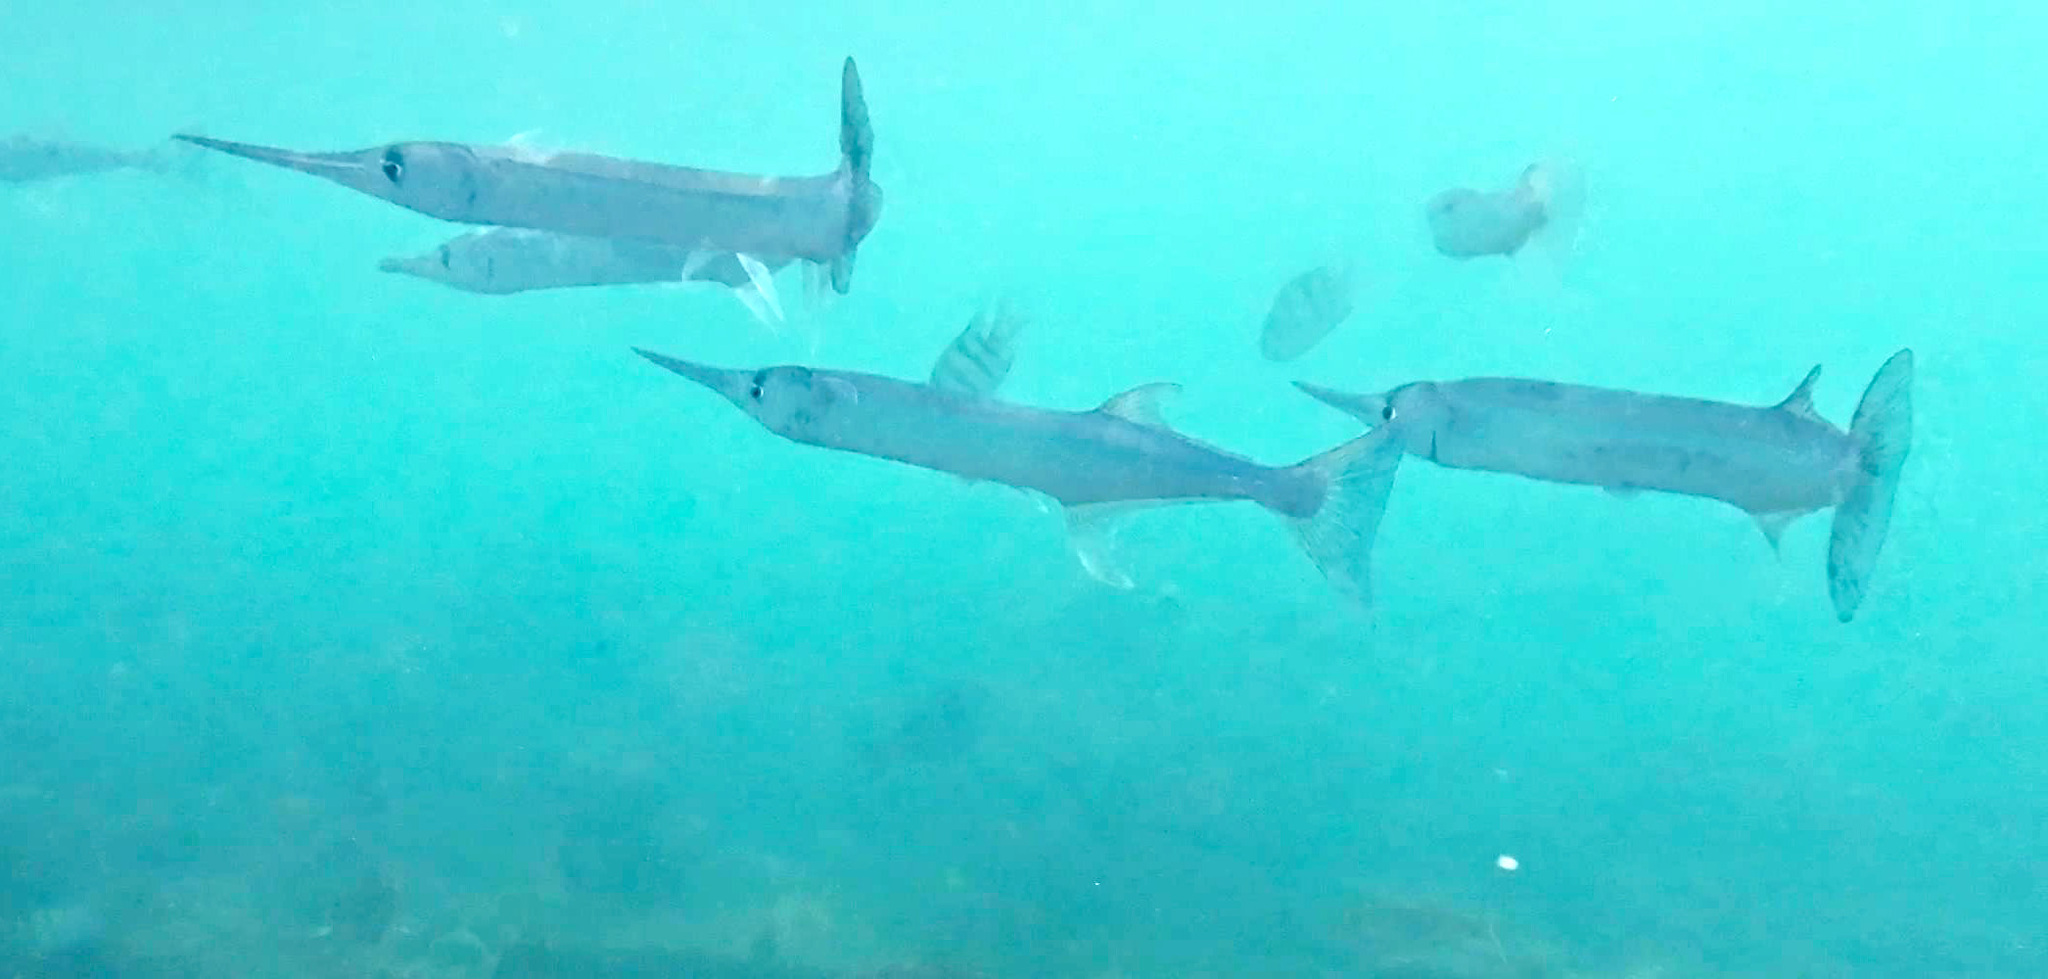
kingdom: Animalia
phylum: Chordata
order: Beloniformes
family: Belonidae
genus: Tylosurus
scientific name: Tylosurus crocodilus
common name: Houndfish
